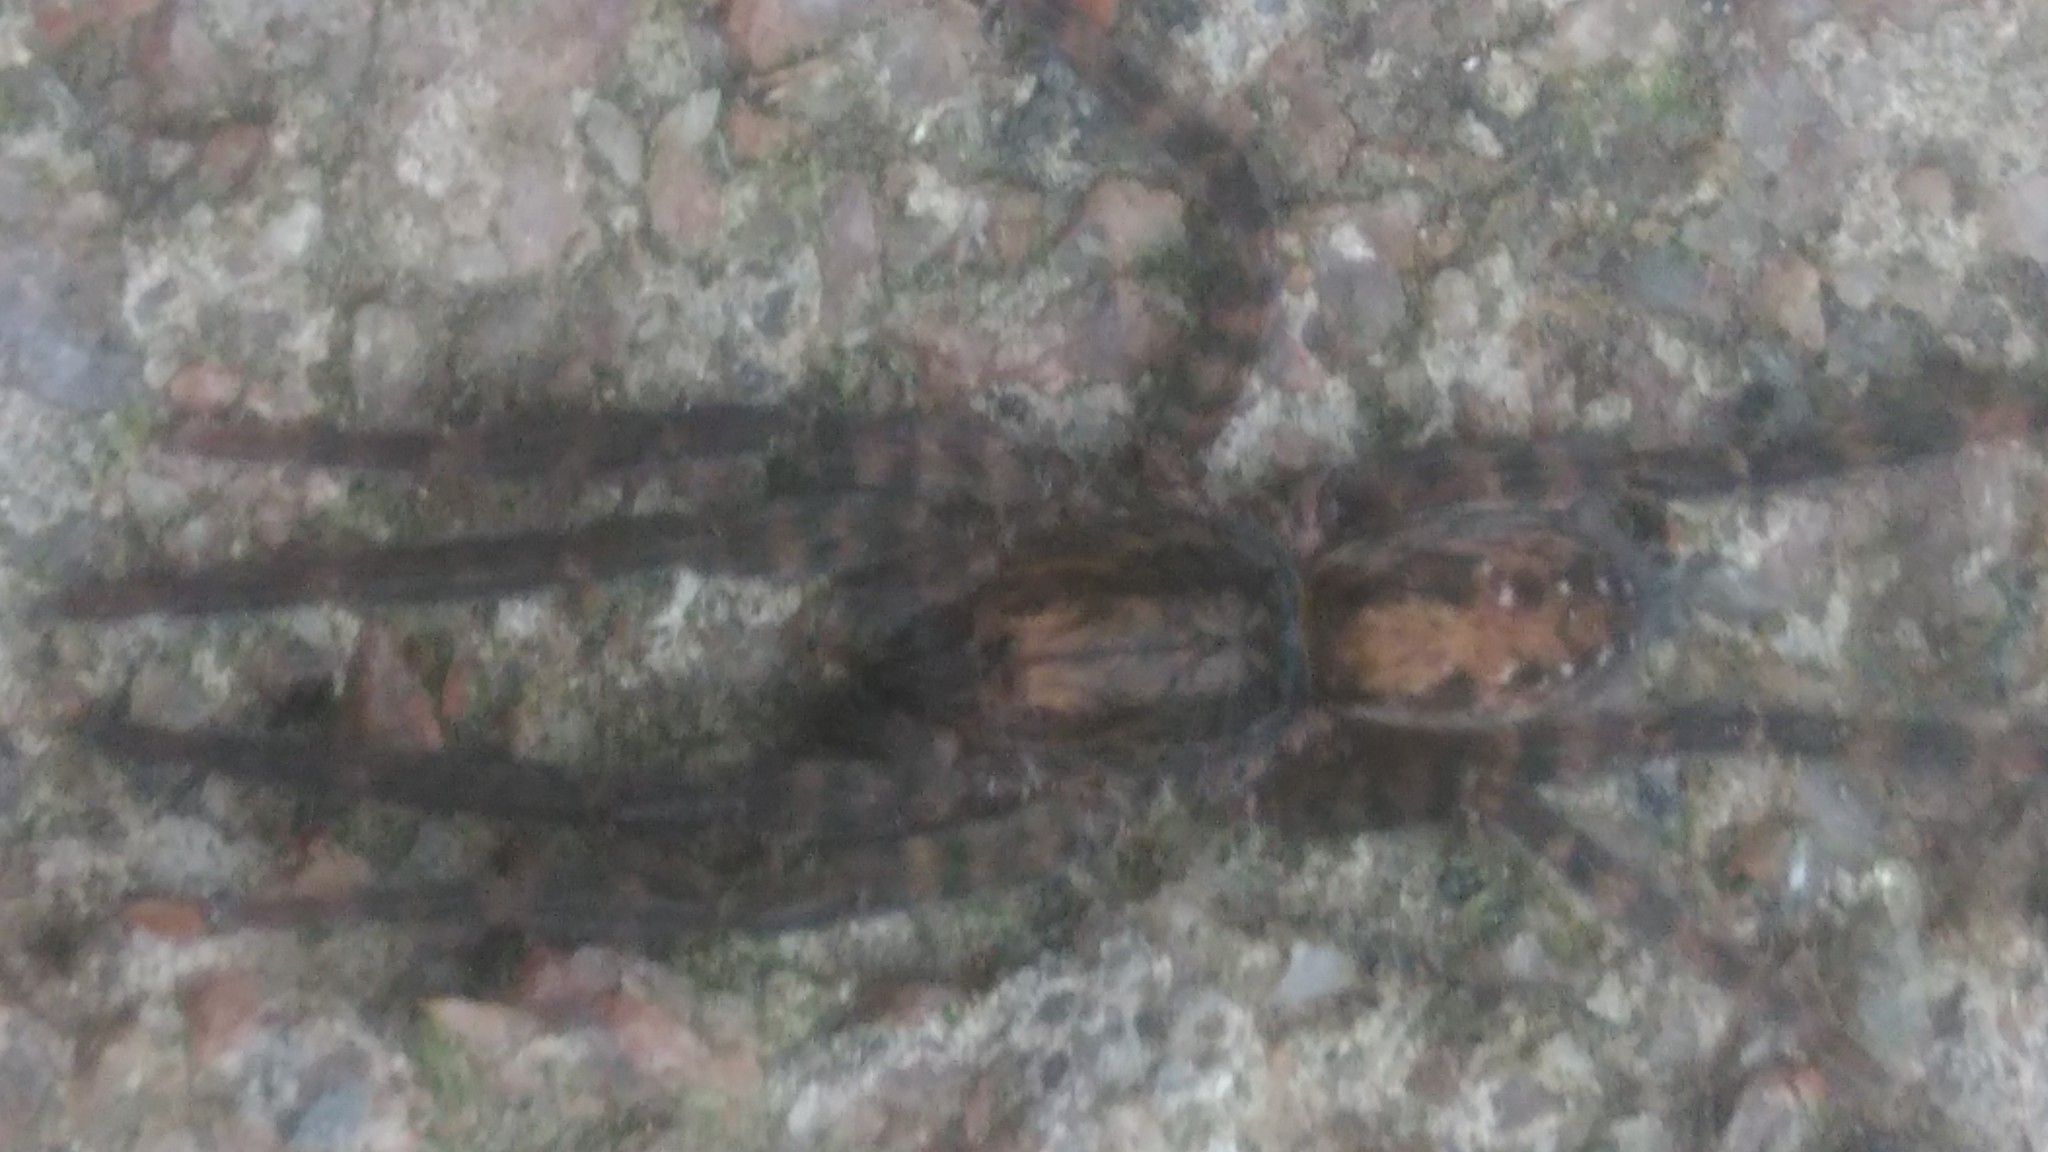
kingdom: Animalia
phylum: Arthropoda
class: Arachnida
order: Araneae
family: Ctenidae
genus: Asthenoctenus
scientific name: Asthenoctenus borellii
